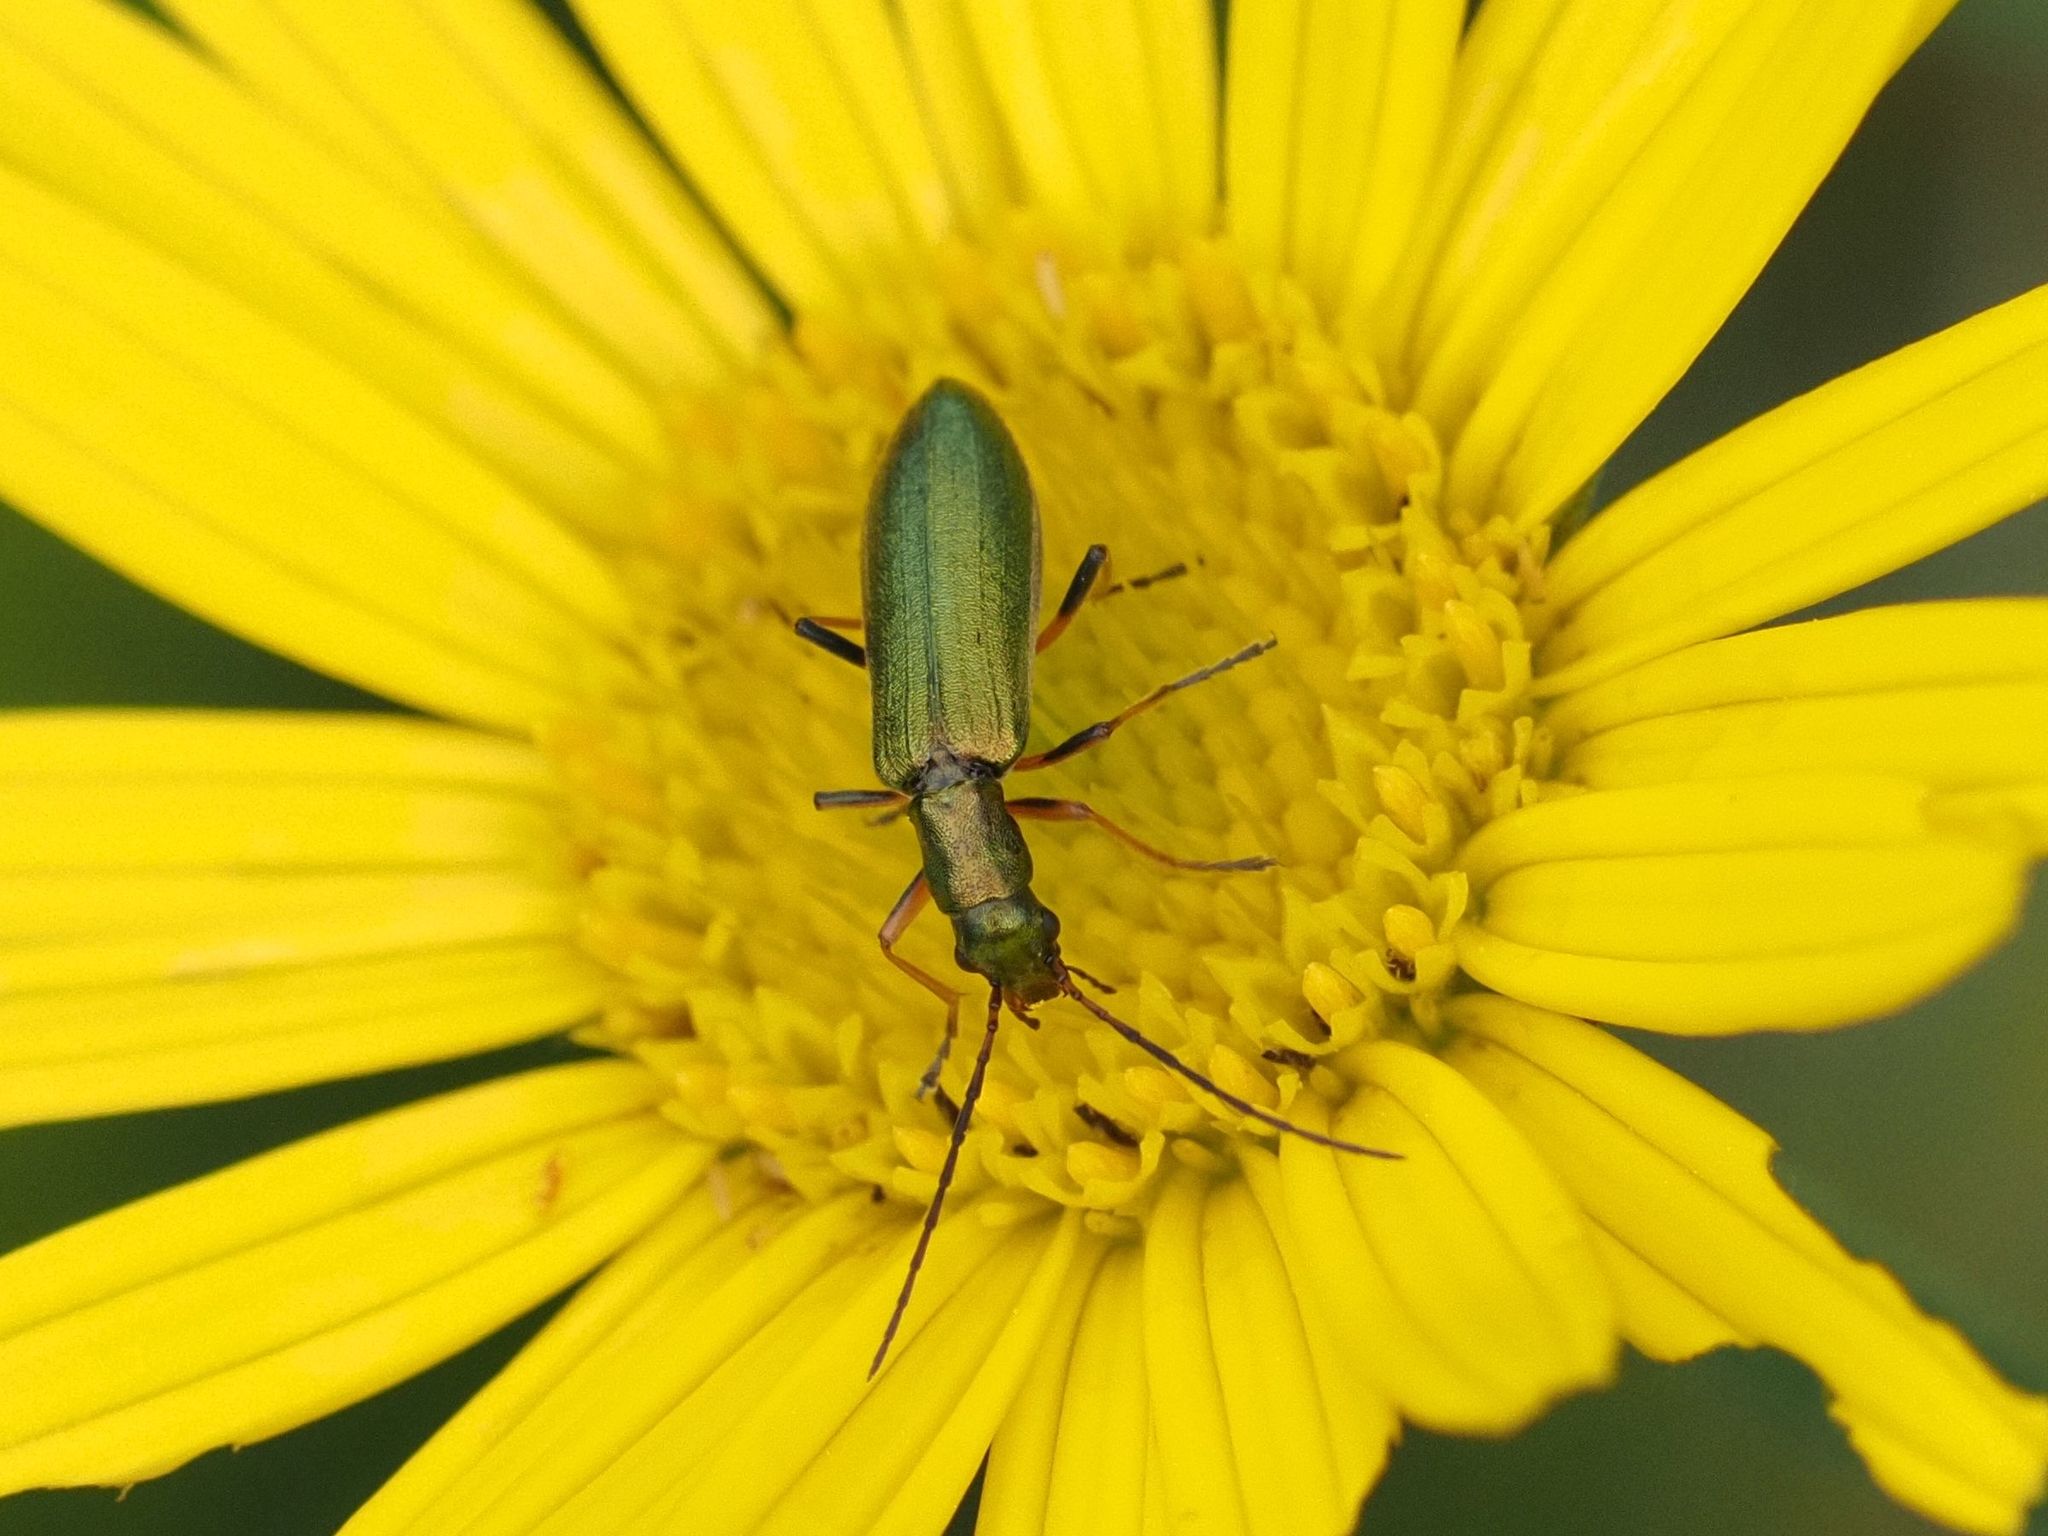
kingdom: Animalia
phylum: Arthropoda
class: Insecta
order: Coleoptera
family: Oedemeridae
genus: Chrysanthia
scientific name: Chrysanthia geniculata
